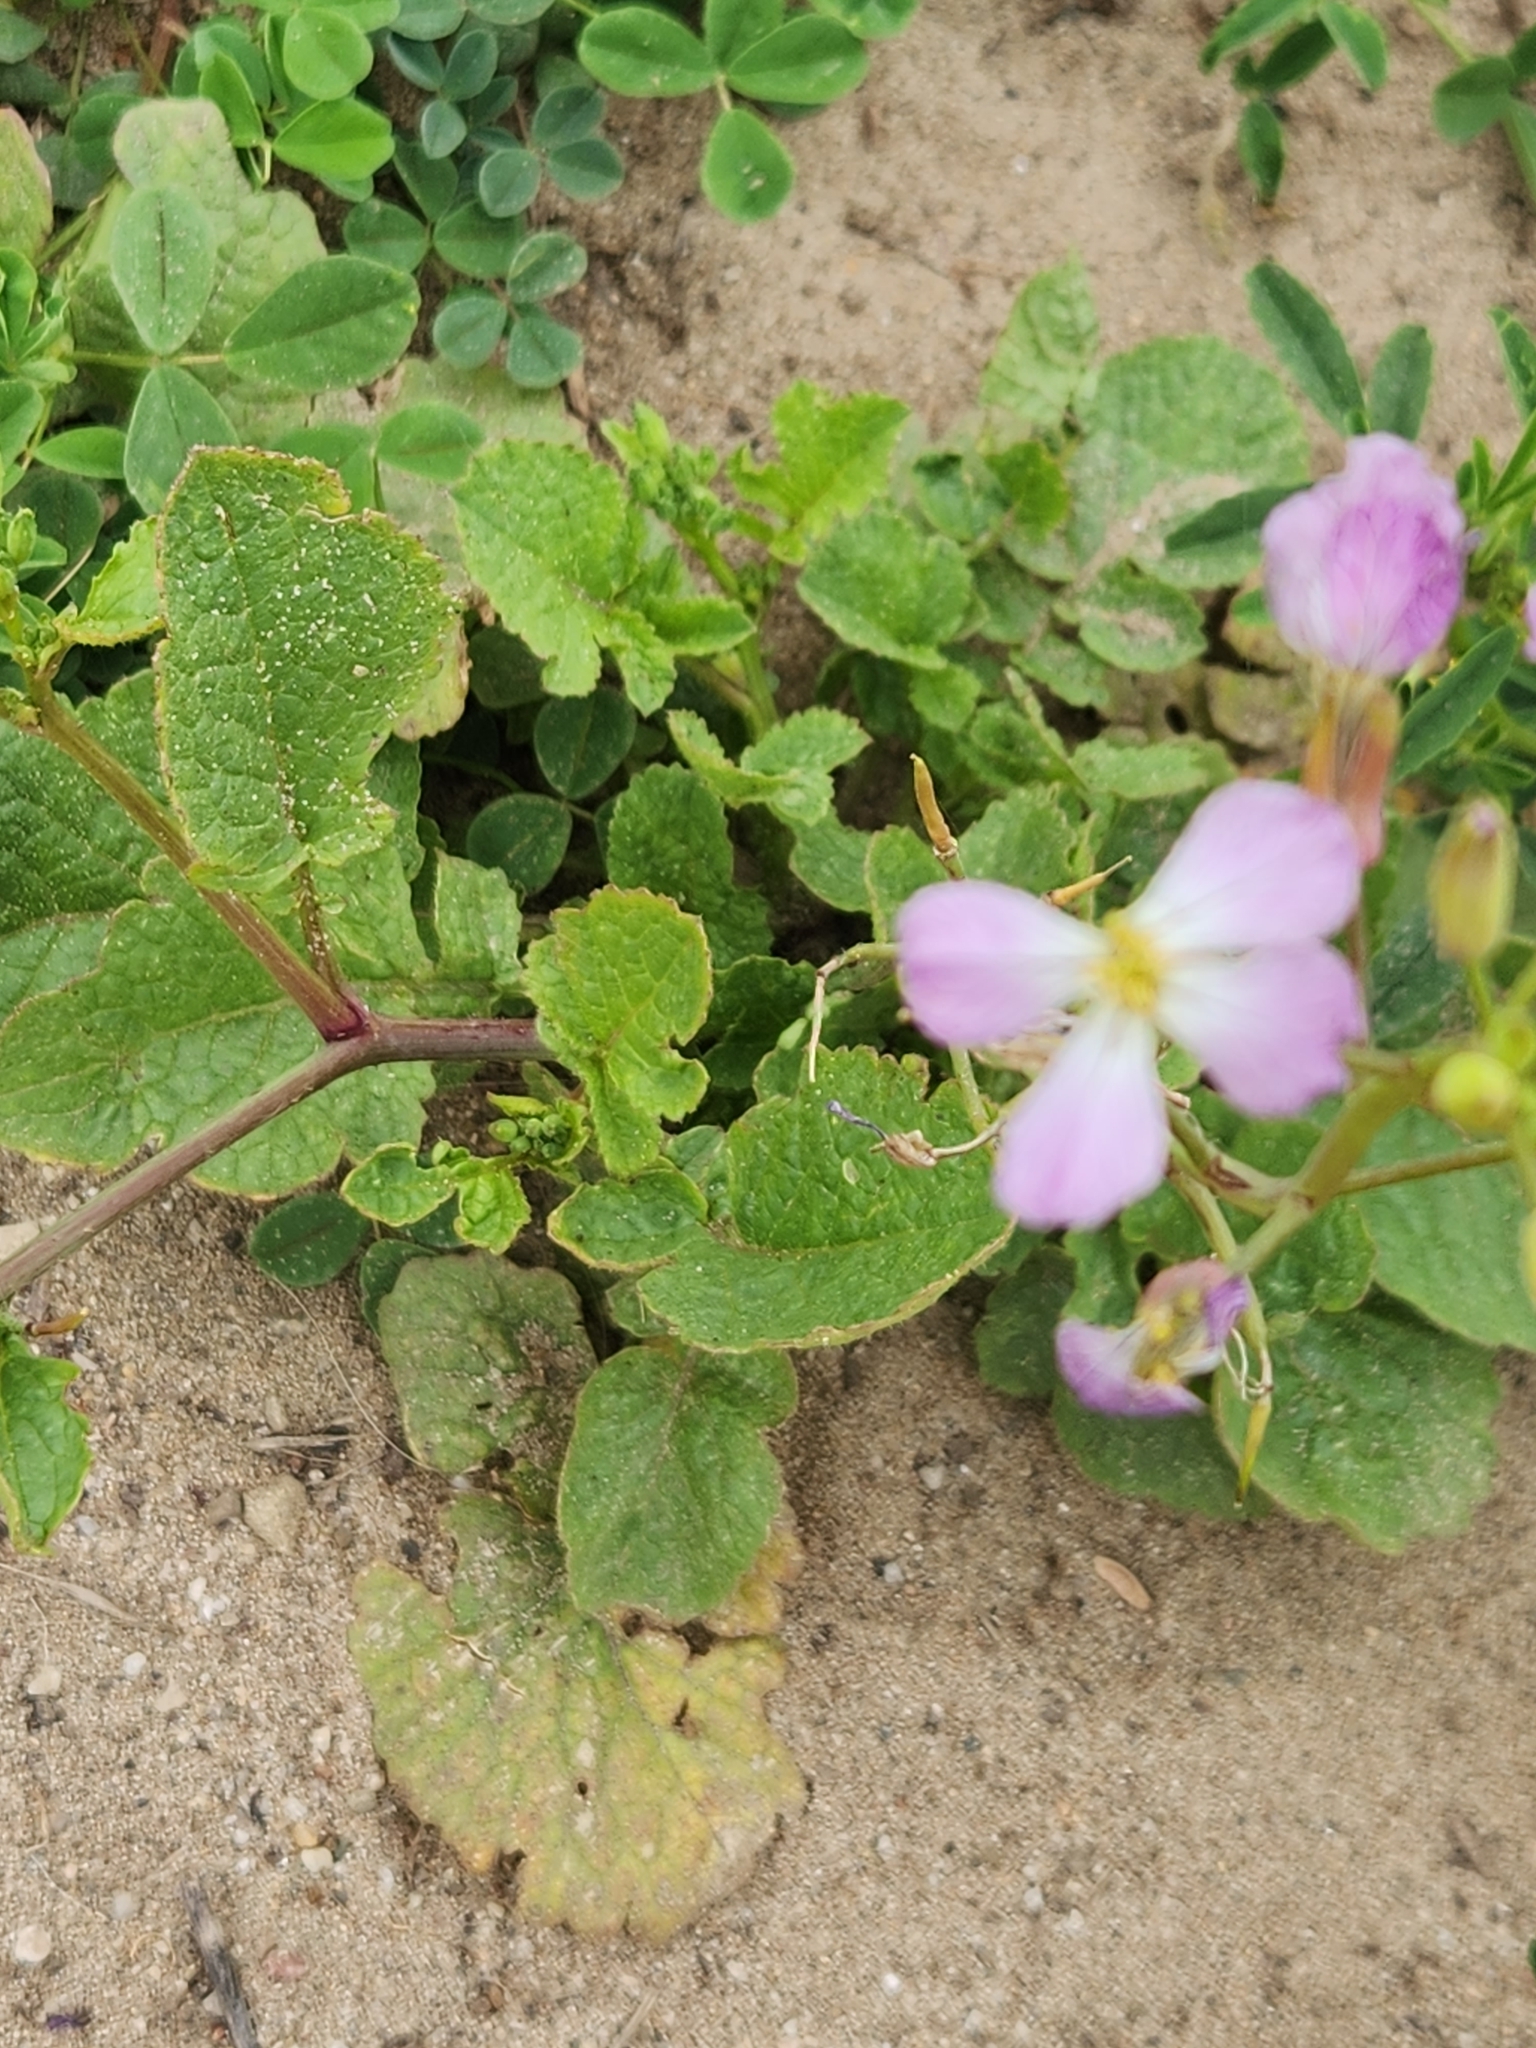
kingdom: Plantae
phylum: Tracheophyta
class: Magnoliopsida
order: Brassicales
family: Brassicaceae
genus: Raphanus
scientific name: Raphanus sativus
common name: Cultivated radish
